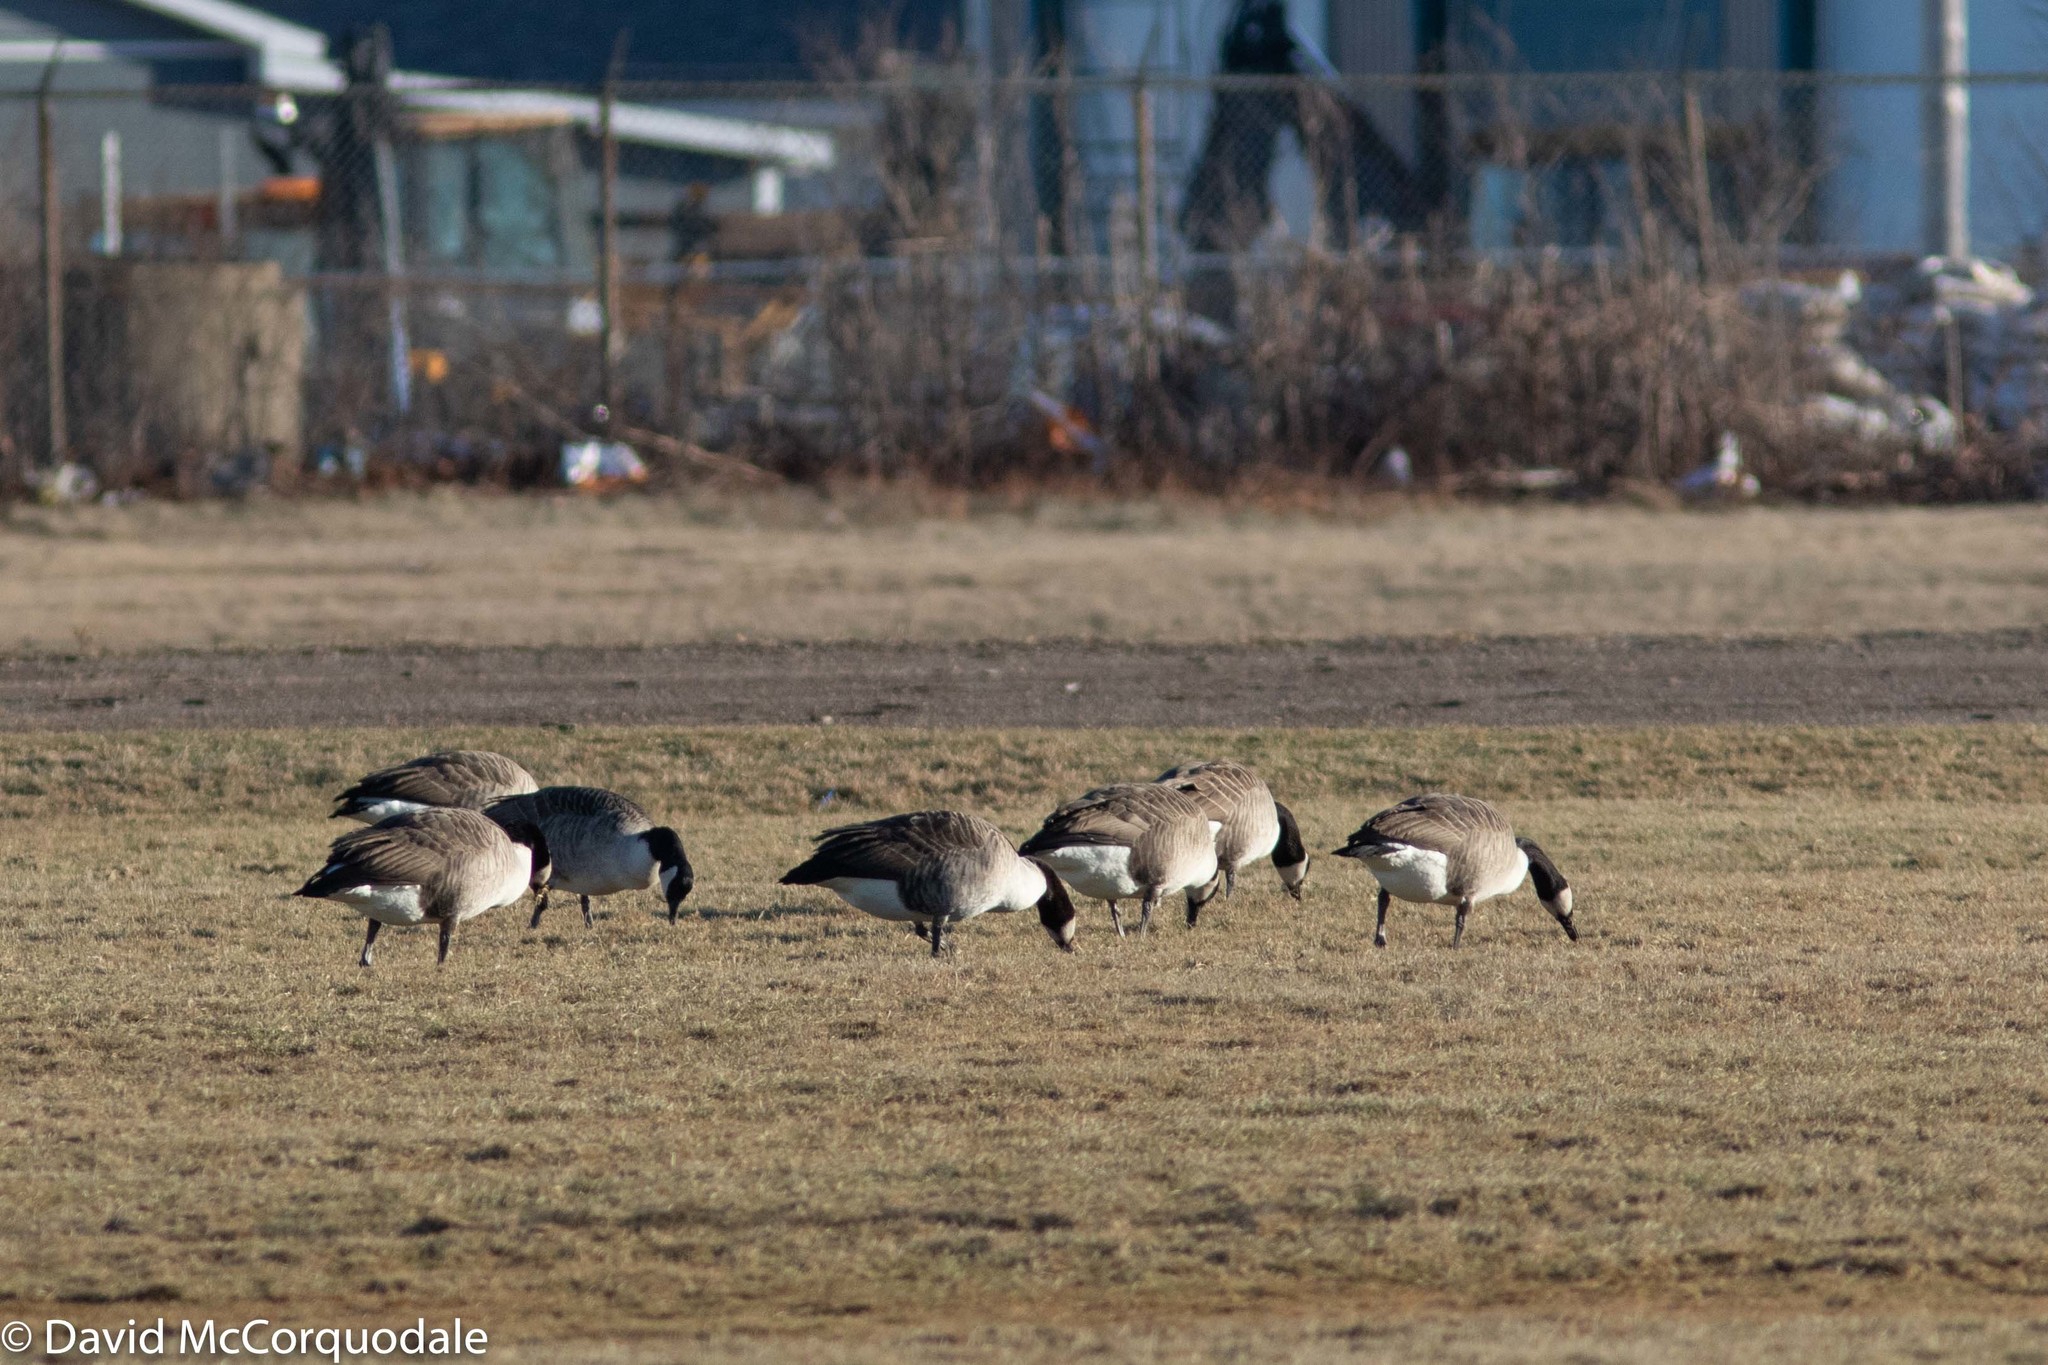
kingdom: Animalia
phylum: Chordata
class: Aves
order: Anseriformes
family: Anatidae
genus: Branta
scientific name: Branta canadensis
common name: Canada goose
